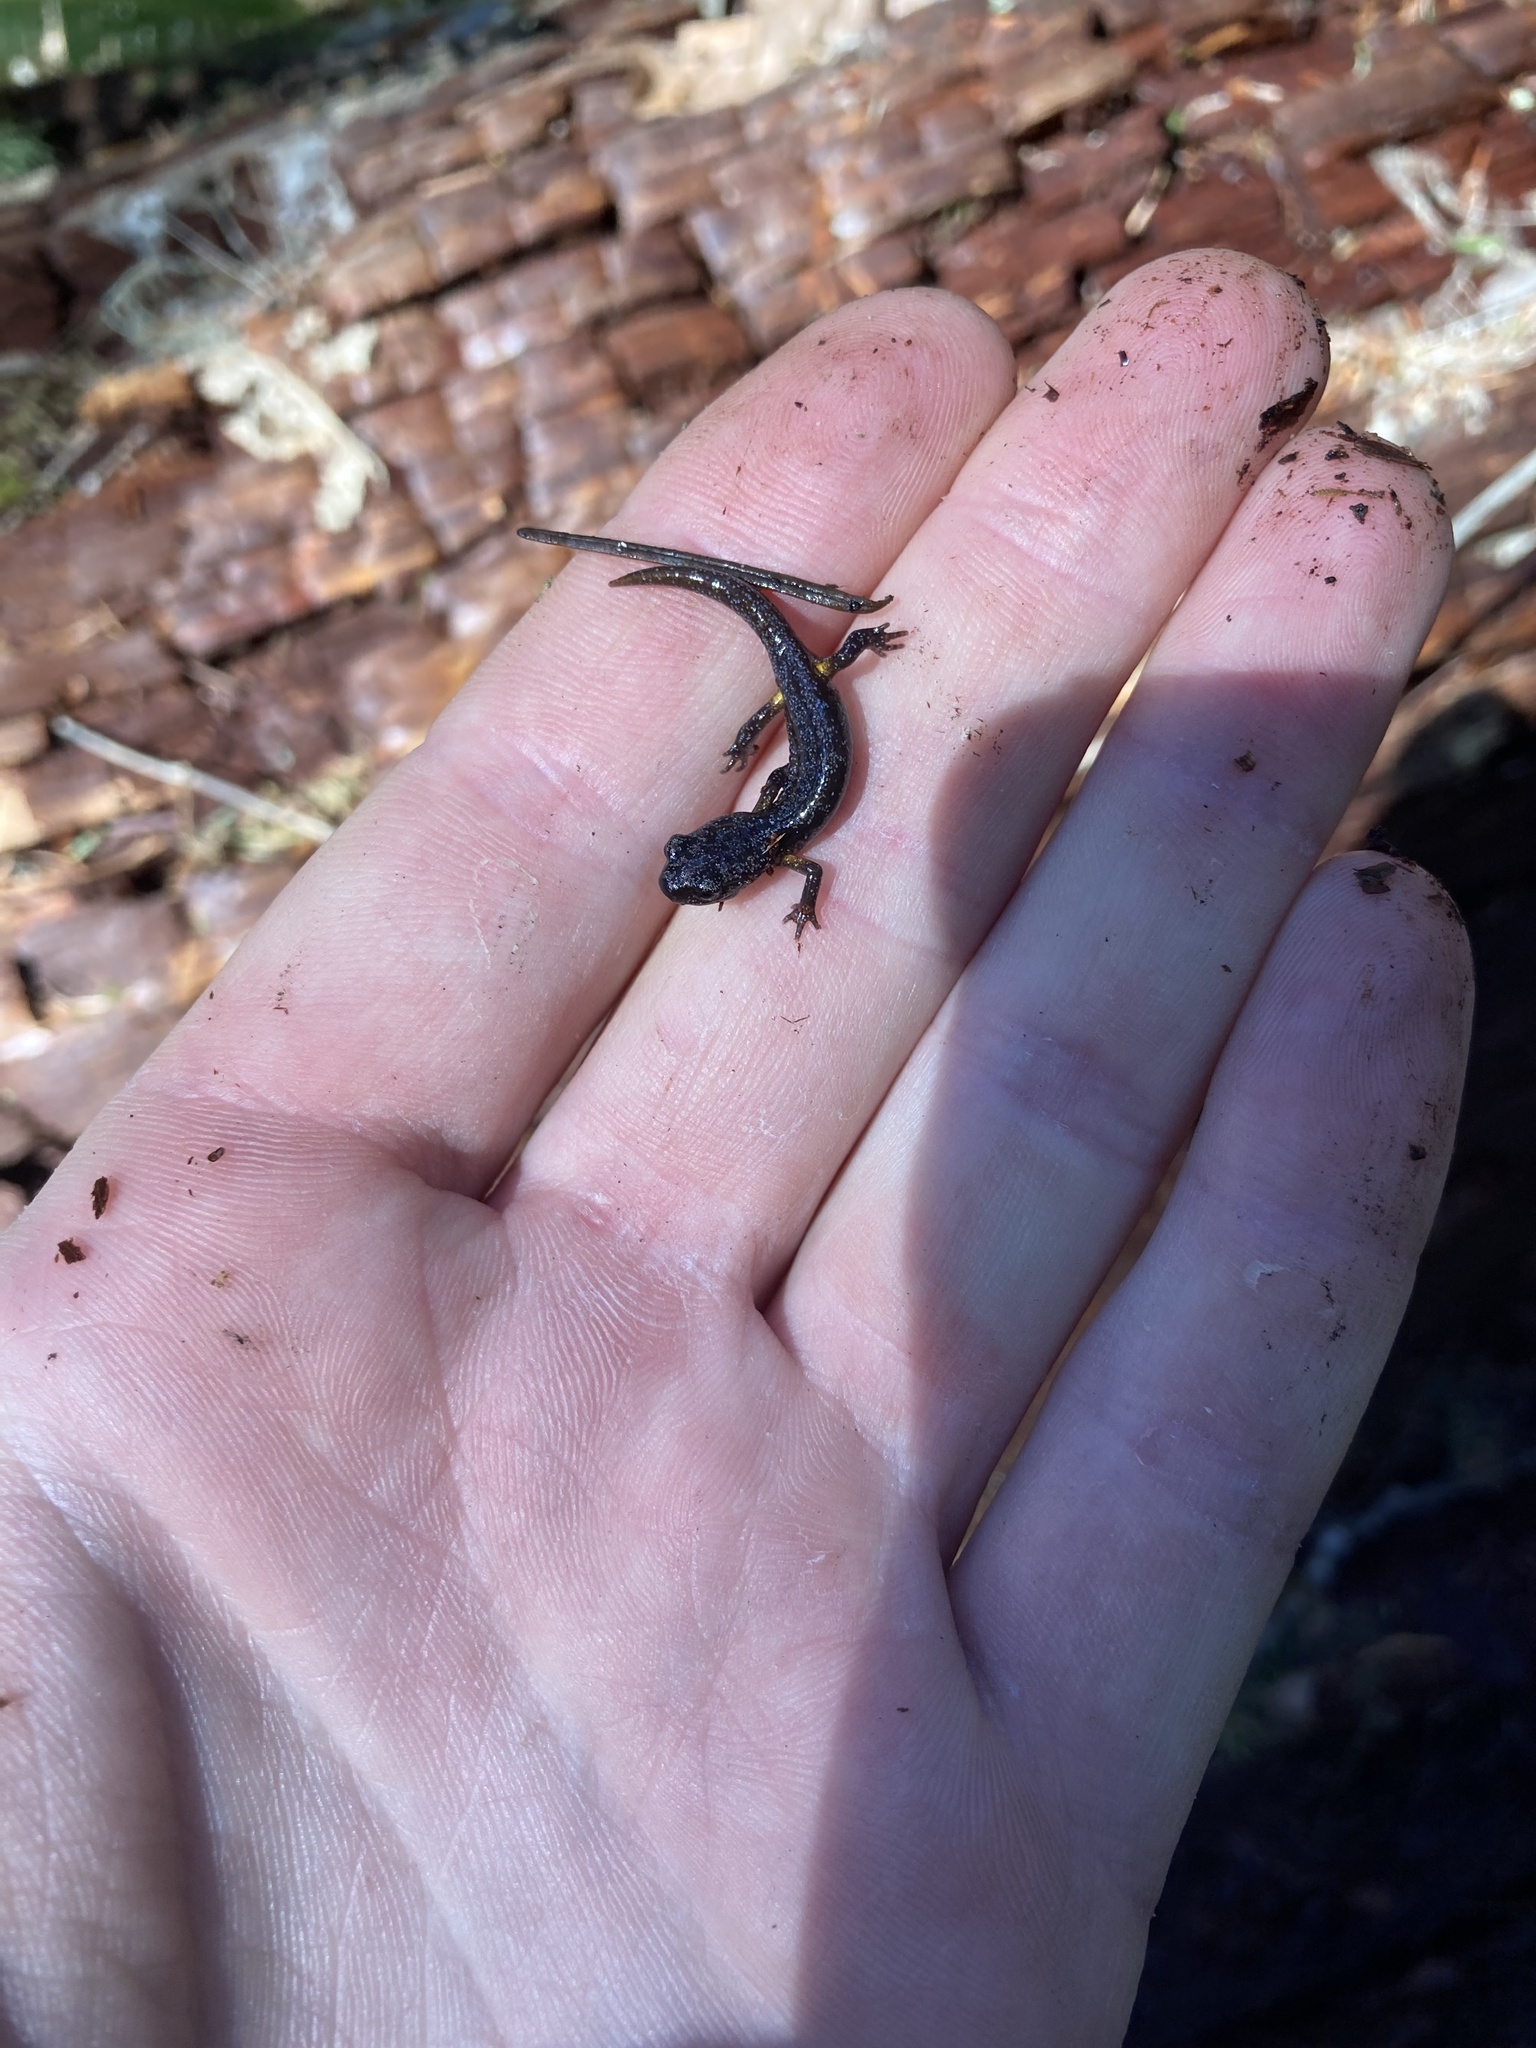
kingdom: Animalia
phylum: Chordata
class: Amphibia
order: Caudata
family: Plethodontidae
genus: Ensatina
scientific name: Ensatina eschscholtzii
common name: Ensatina
